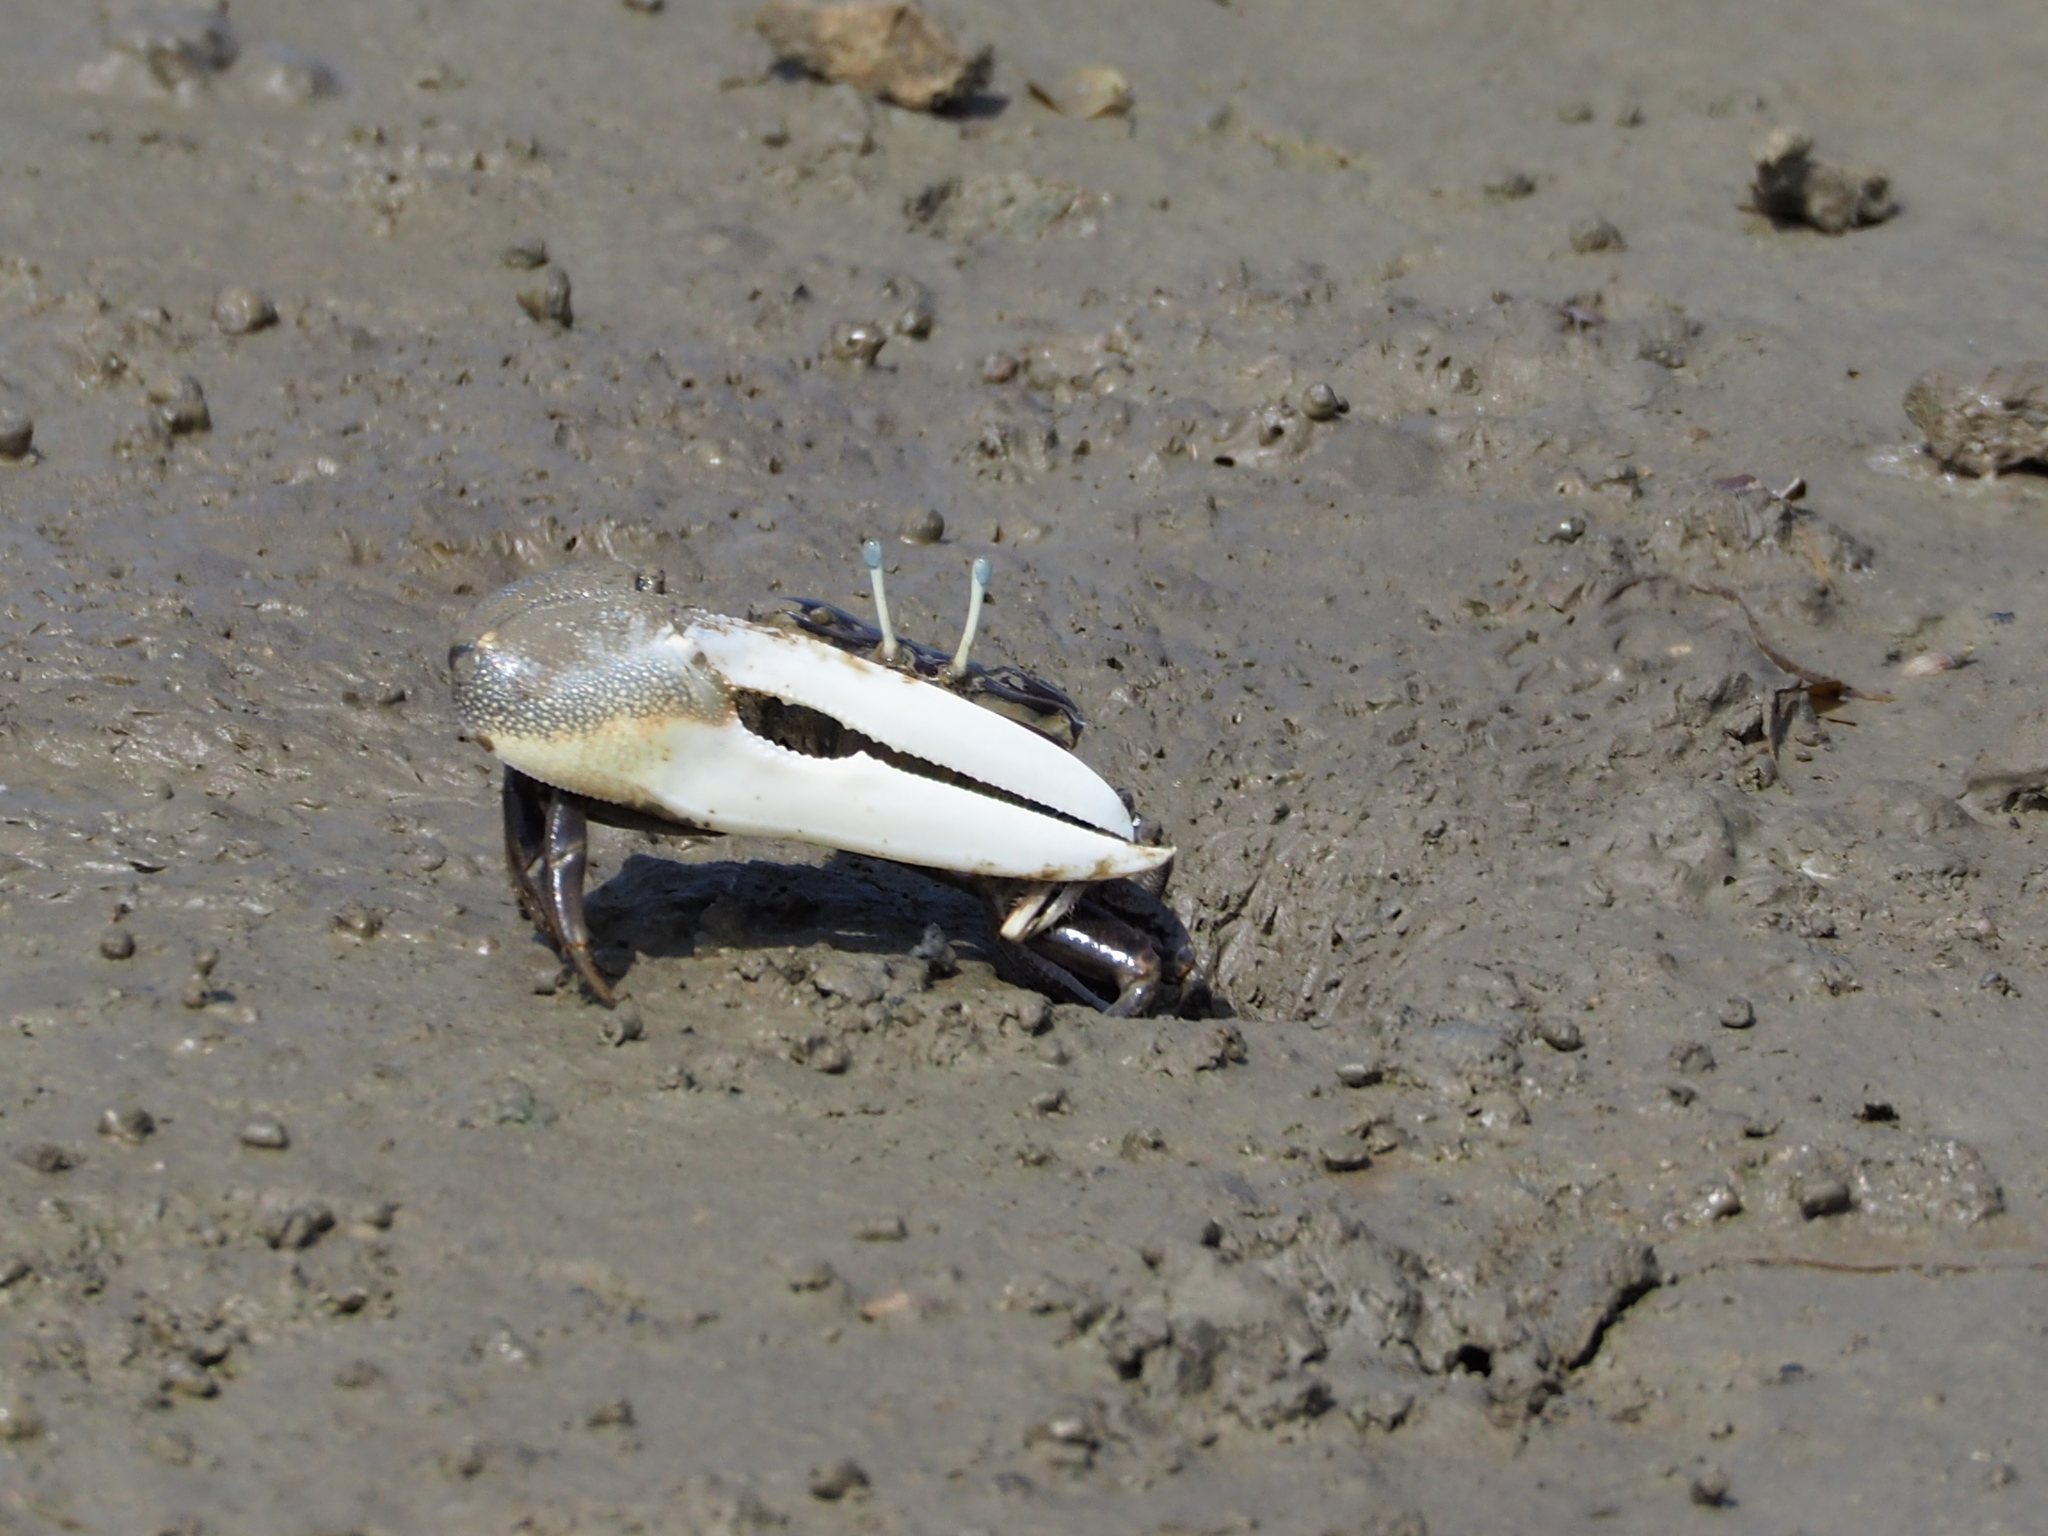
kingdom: Animalia
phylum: Arthropoda
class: Malacostraca
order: Decapoda
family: Ocypodidae
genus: Xeruca
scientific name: Xeruca formosensis
